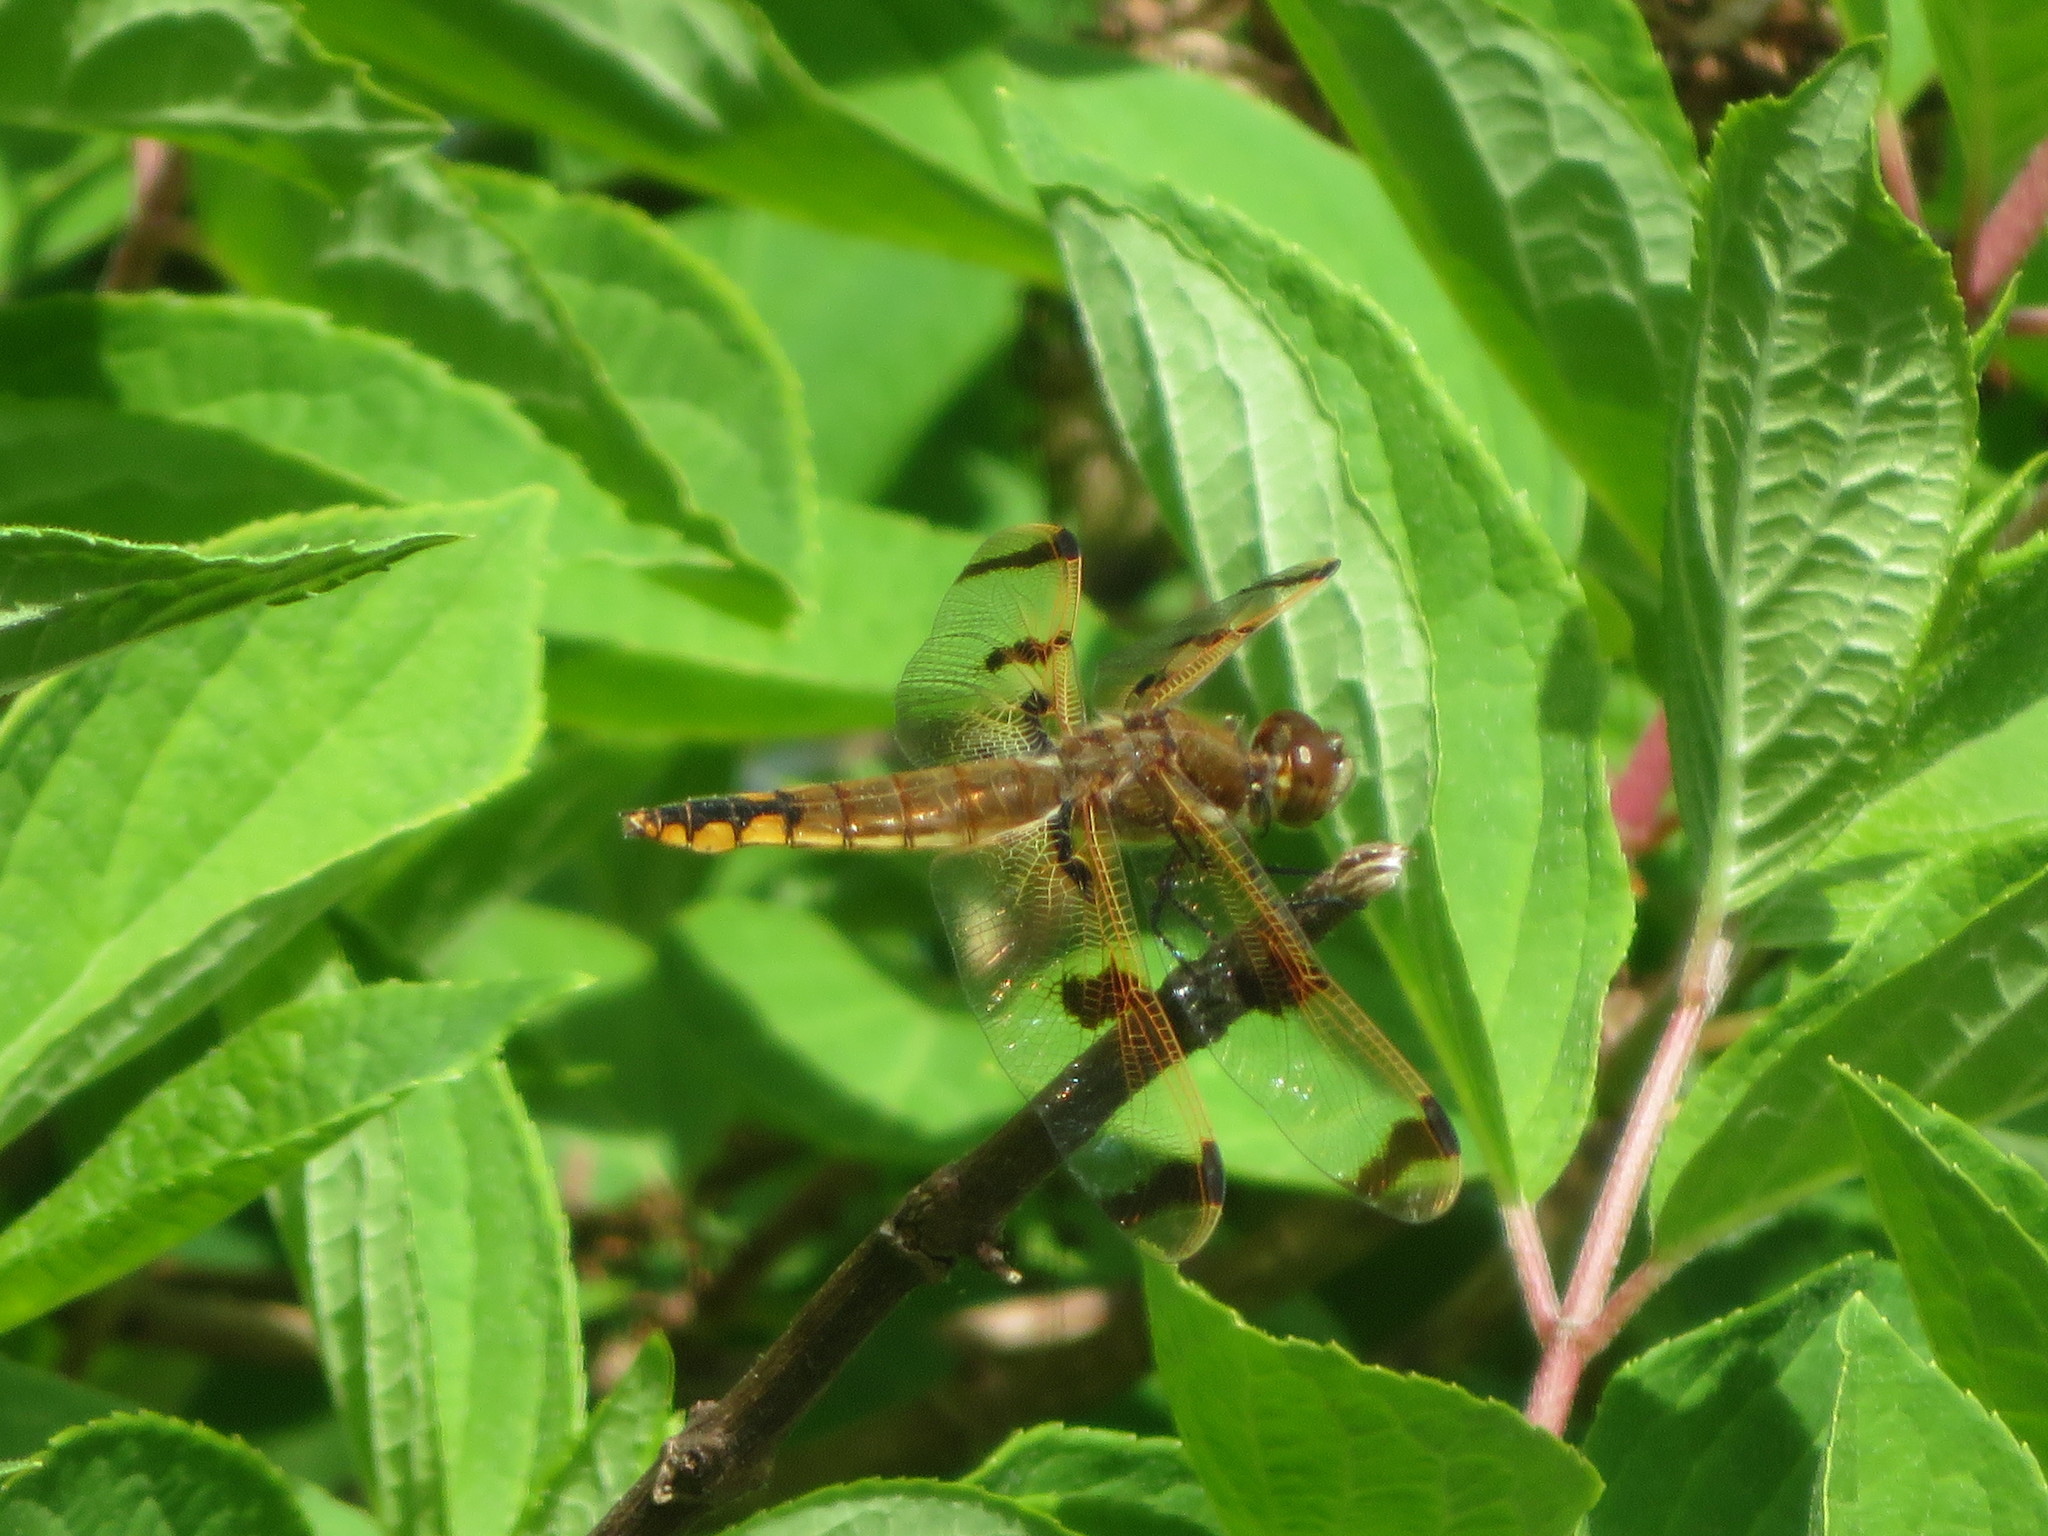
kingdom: Animalia
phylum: Arthropoda
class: Insecta
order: Odonata
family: Libellulidae
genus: Libellula
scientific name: Libellula semifasciata
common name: Painted skimmer
